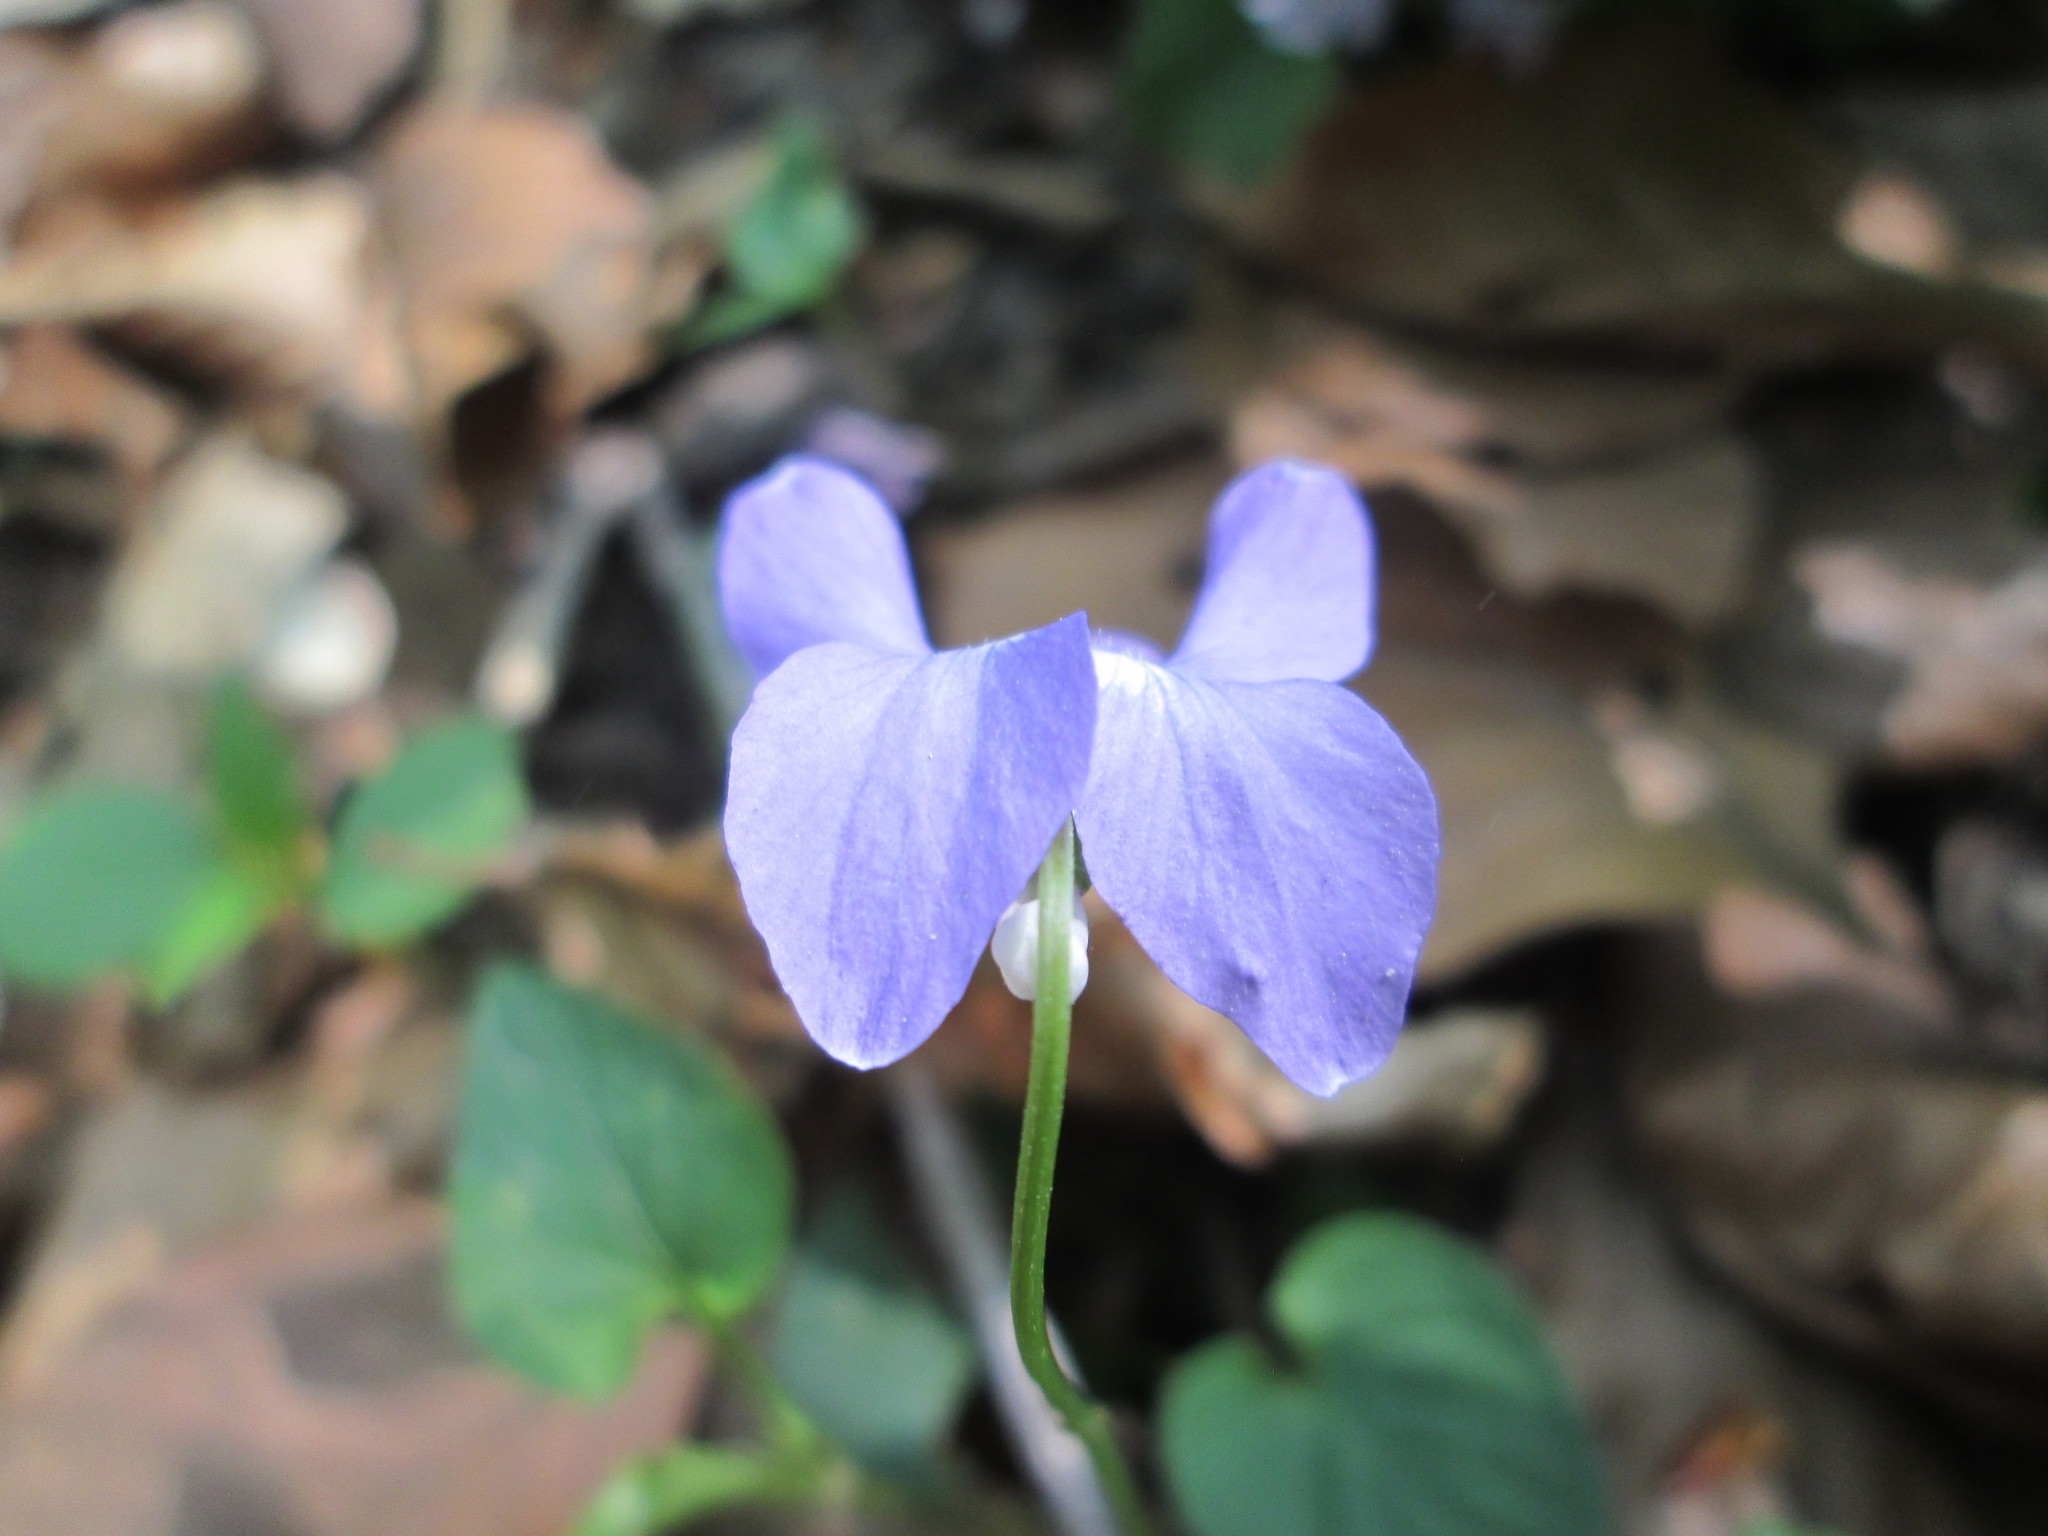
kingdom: Plantae
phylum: Tracheophyta
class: Magnoliopsida
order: Malpighiales
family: Violaceae
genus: Viola
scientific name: Viola riviniana
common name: Common dog-violet
